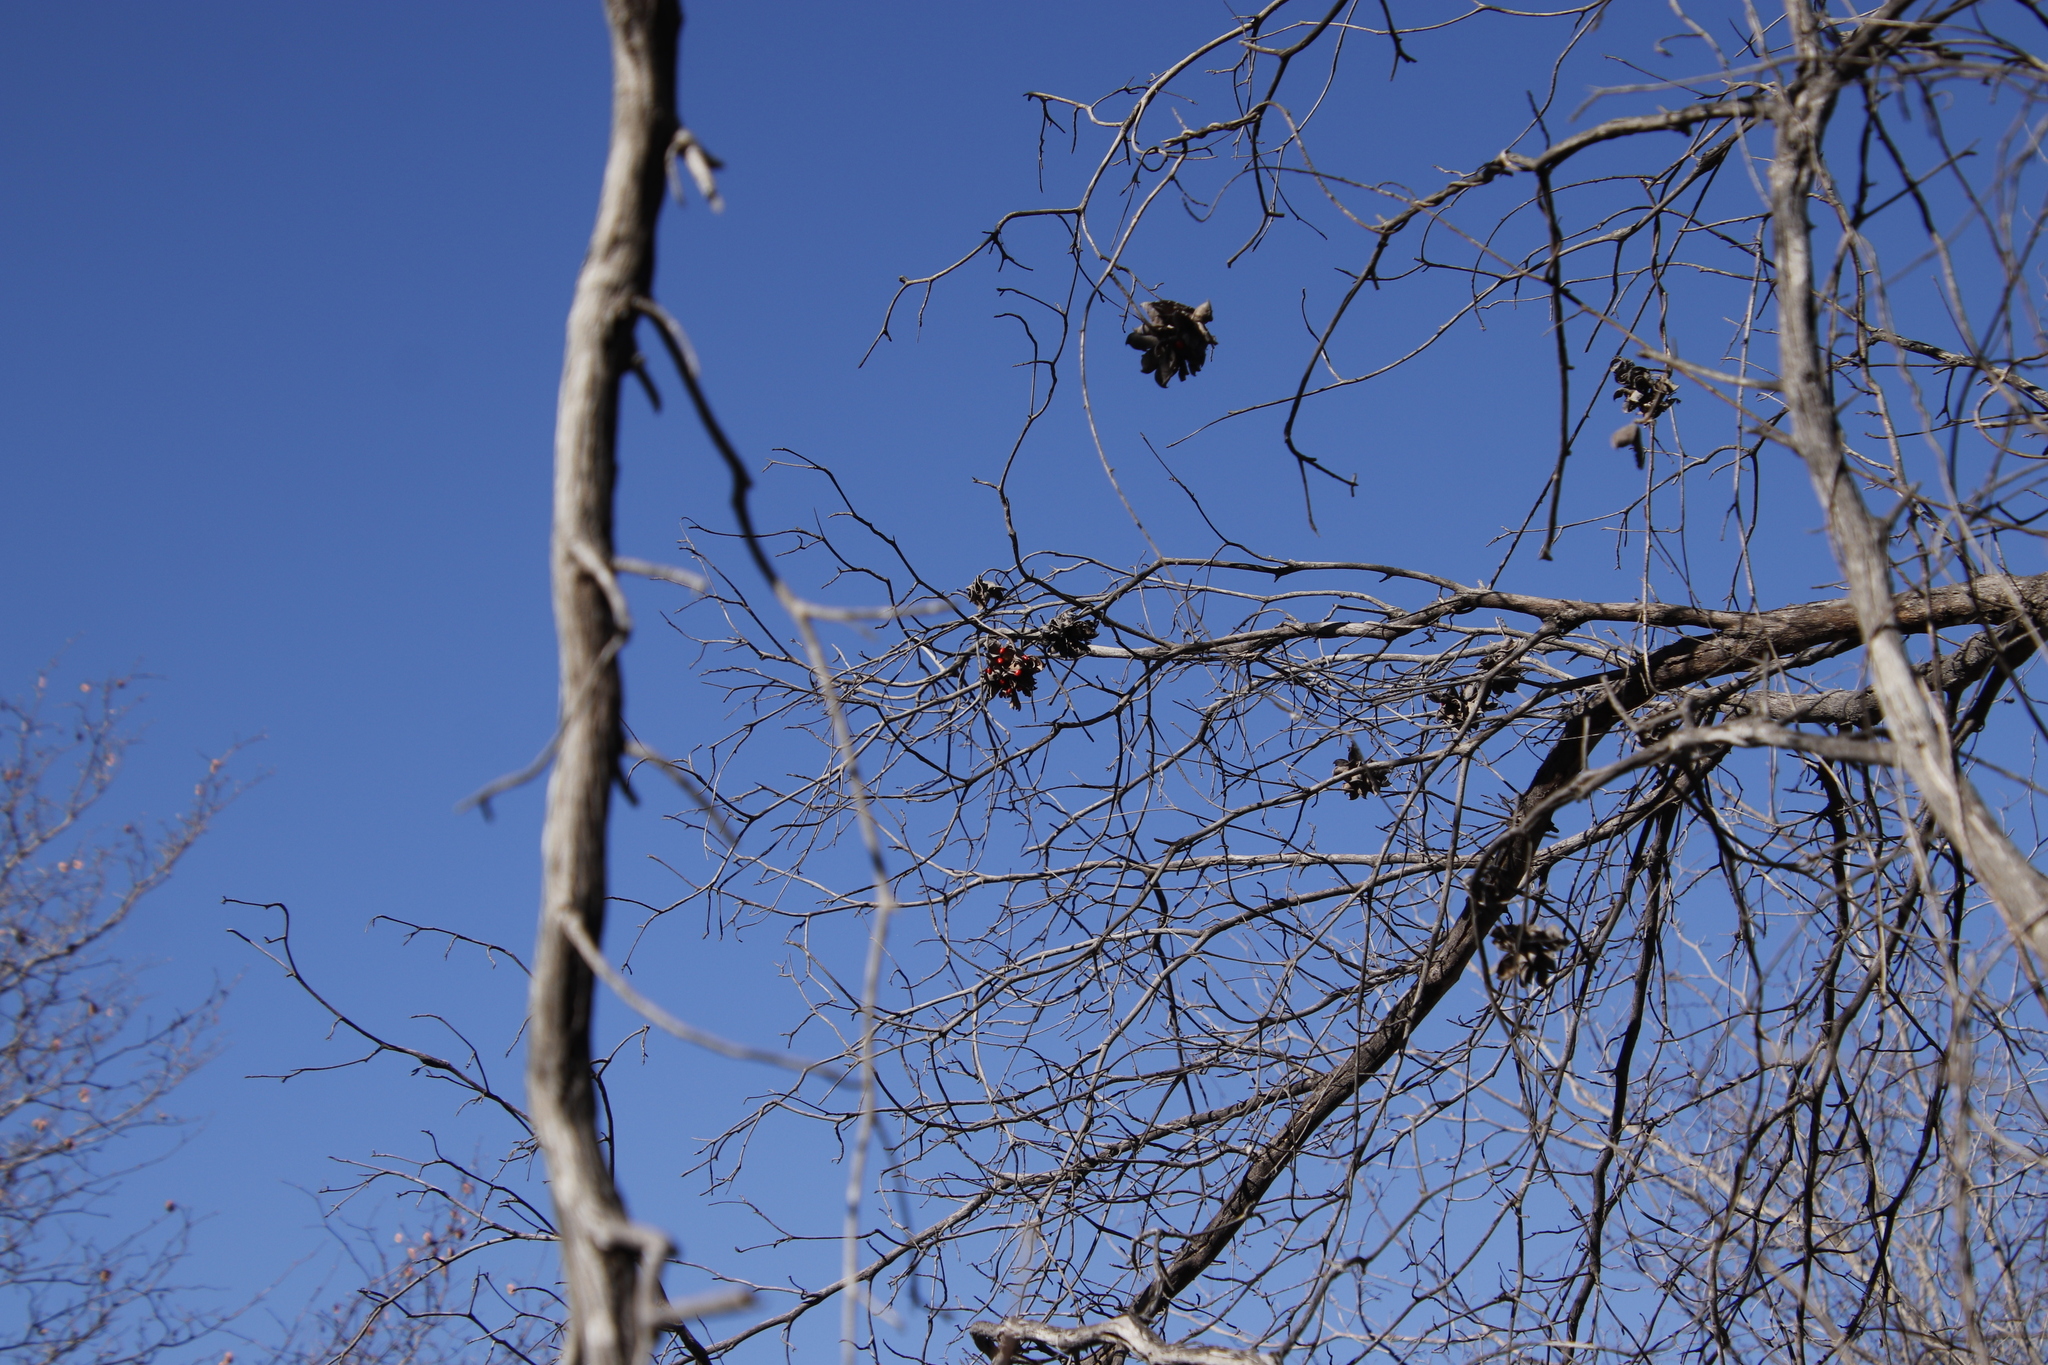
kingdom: Plantae
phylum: Tracheophyta
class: Magnoliopsida
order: Fabales
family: Fabaceae
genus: Abrus
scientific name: Abrus precatorius
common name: Rosarypea
